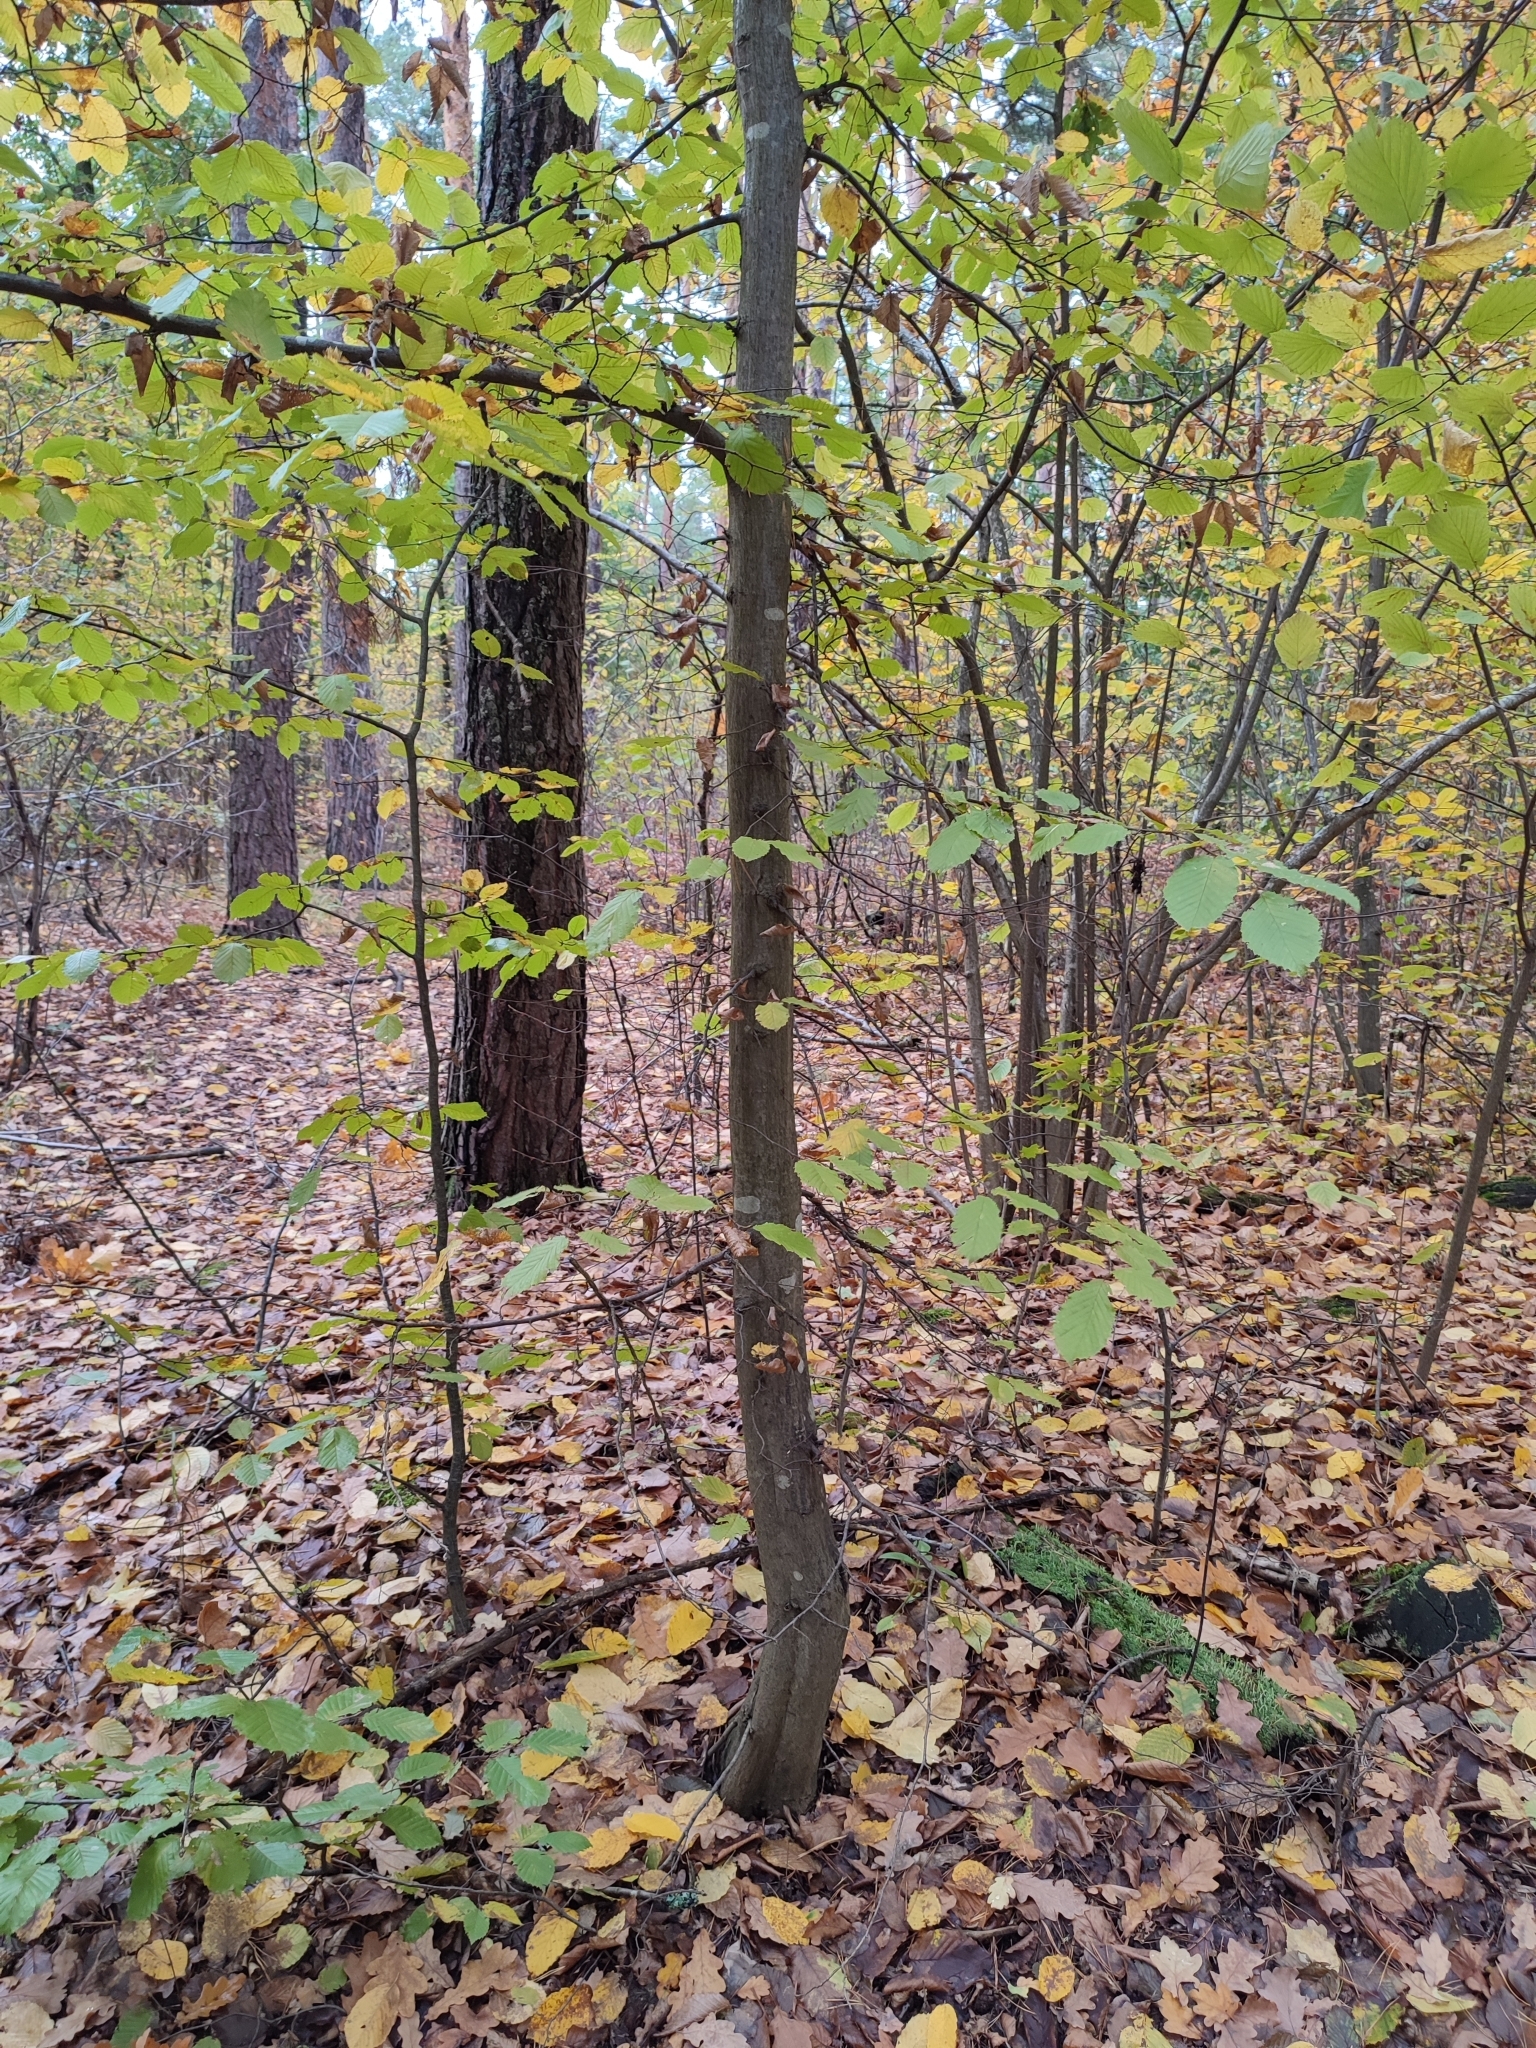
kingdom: Plantae
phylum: Tracheophyta
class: Magnoliopsida
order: Fagales
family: Betulaceae
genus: Carpinus
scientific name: Carpinus betulus
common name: Hornbeam
